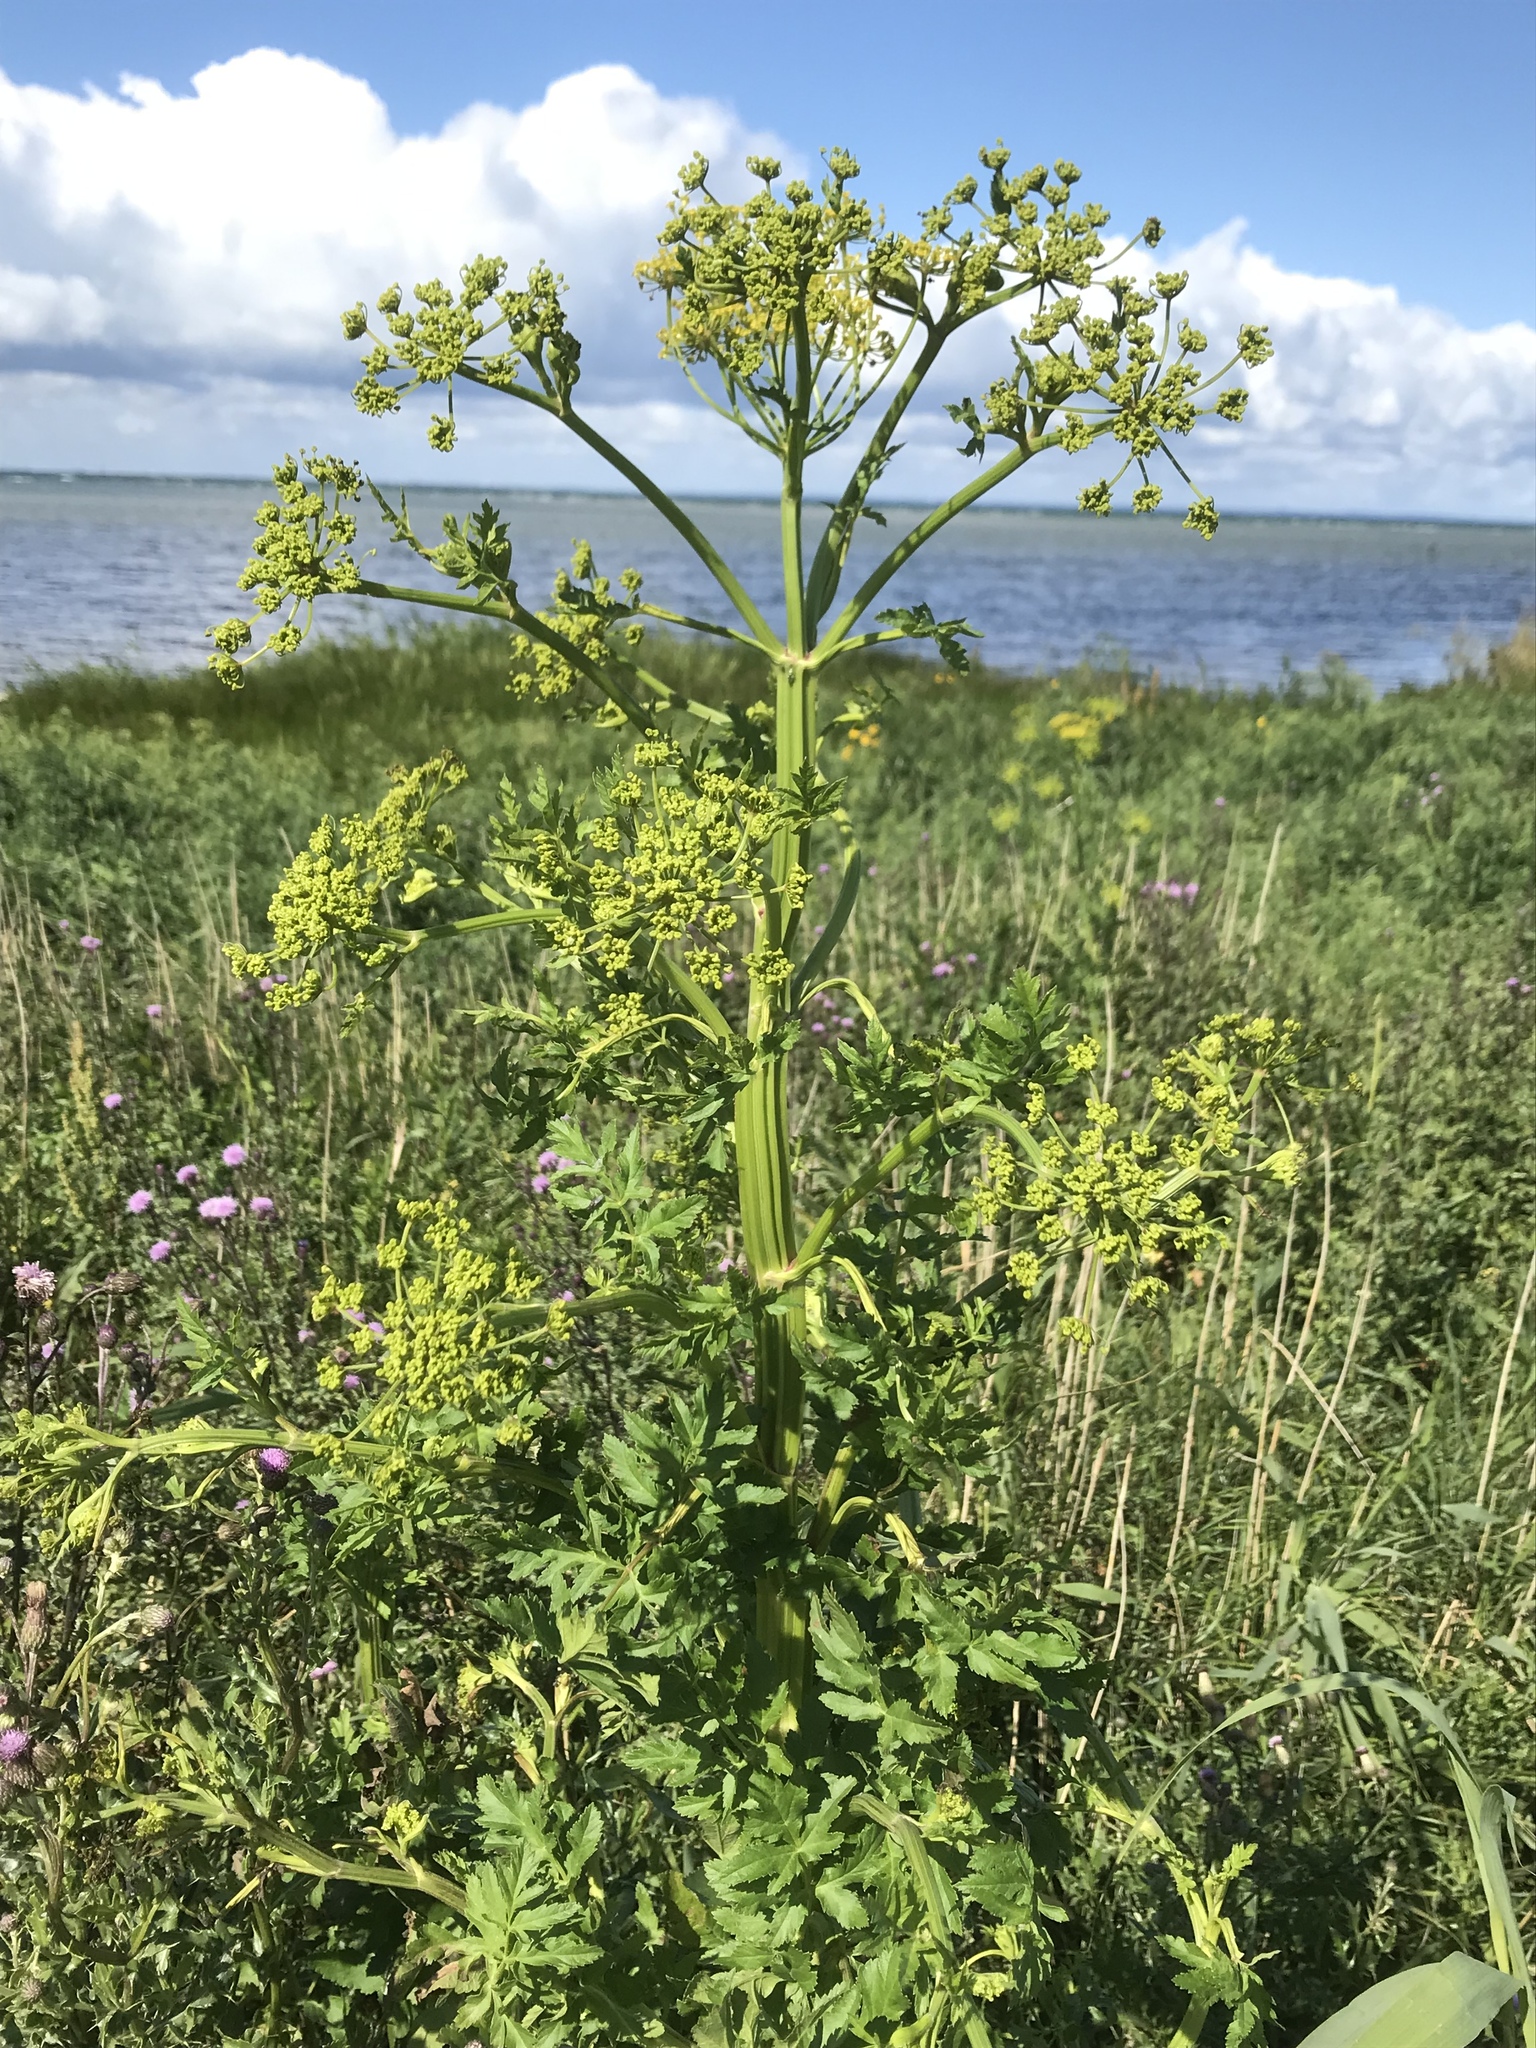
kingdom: Plantae
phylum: Tracheophyta
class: Magnoliopsida
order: Apiales
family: Apiaceae
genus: Pastinaca
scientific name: Pastinaca sativa
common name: Wild parsnip
